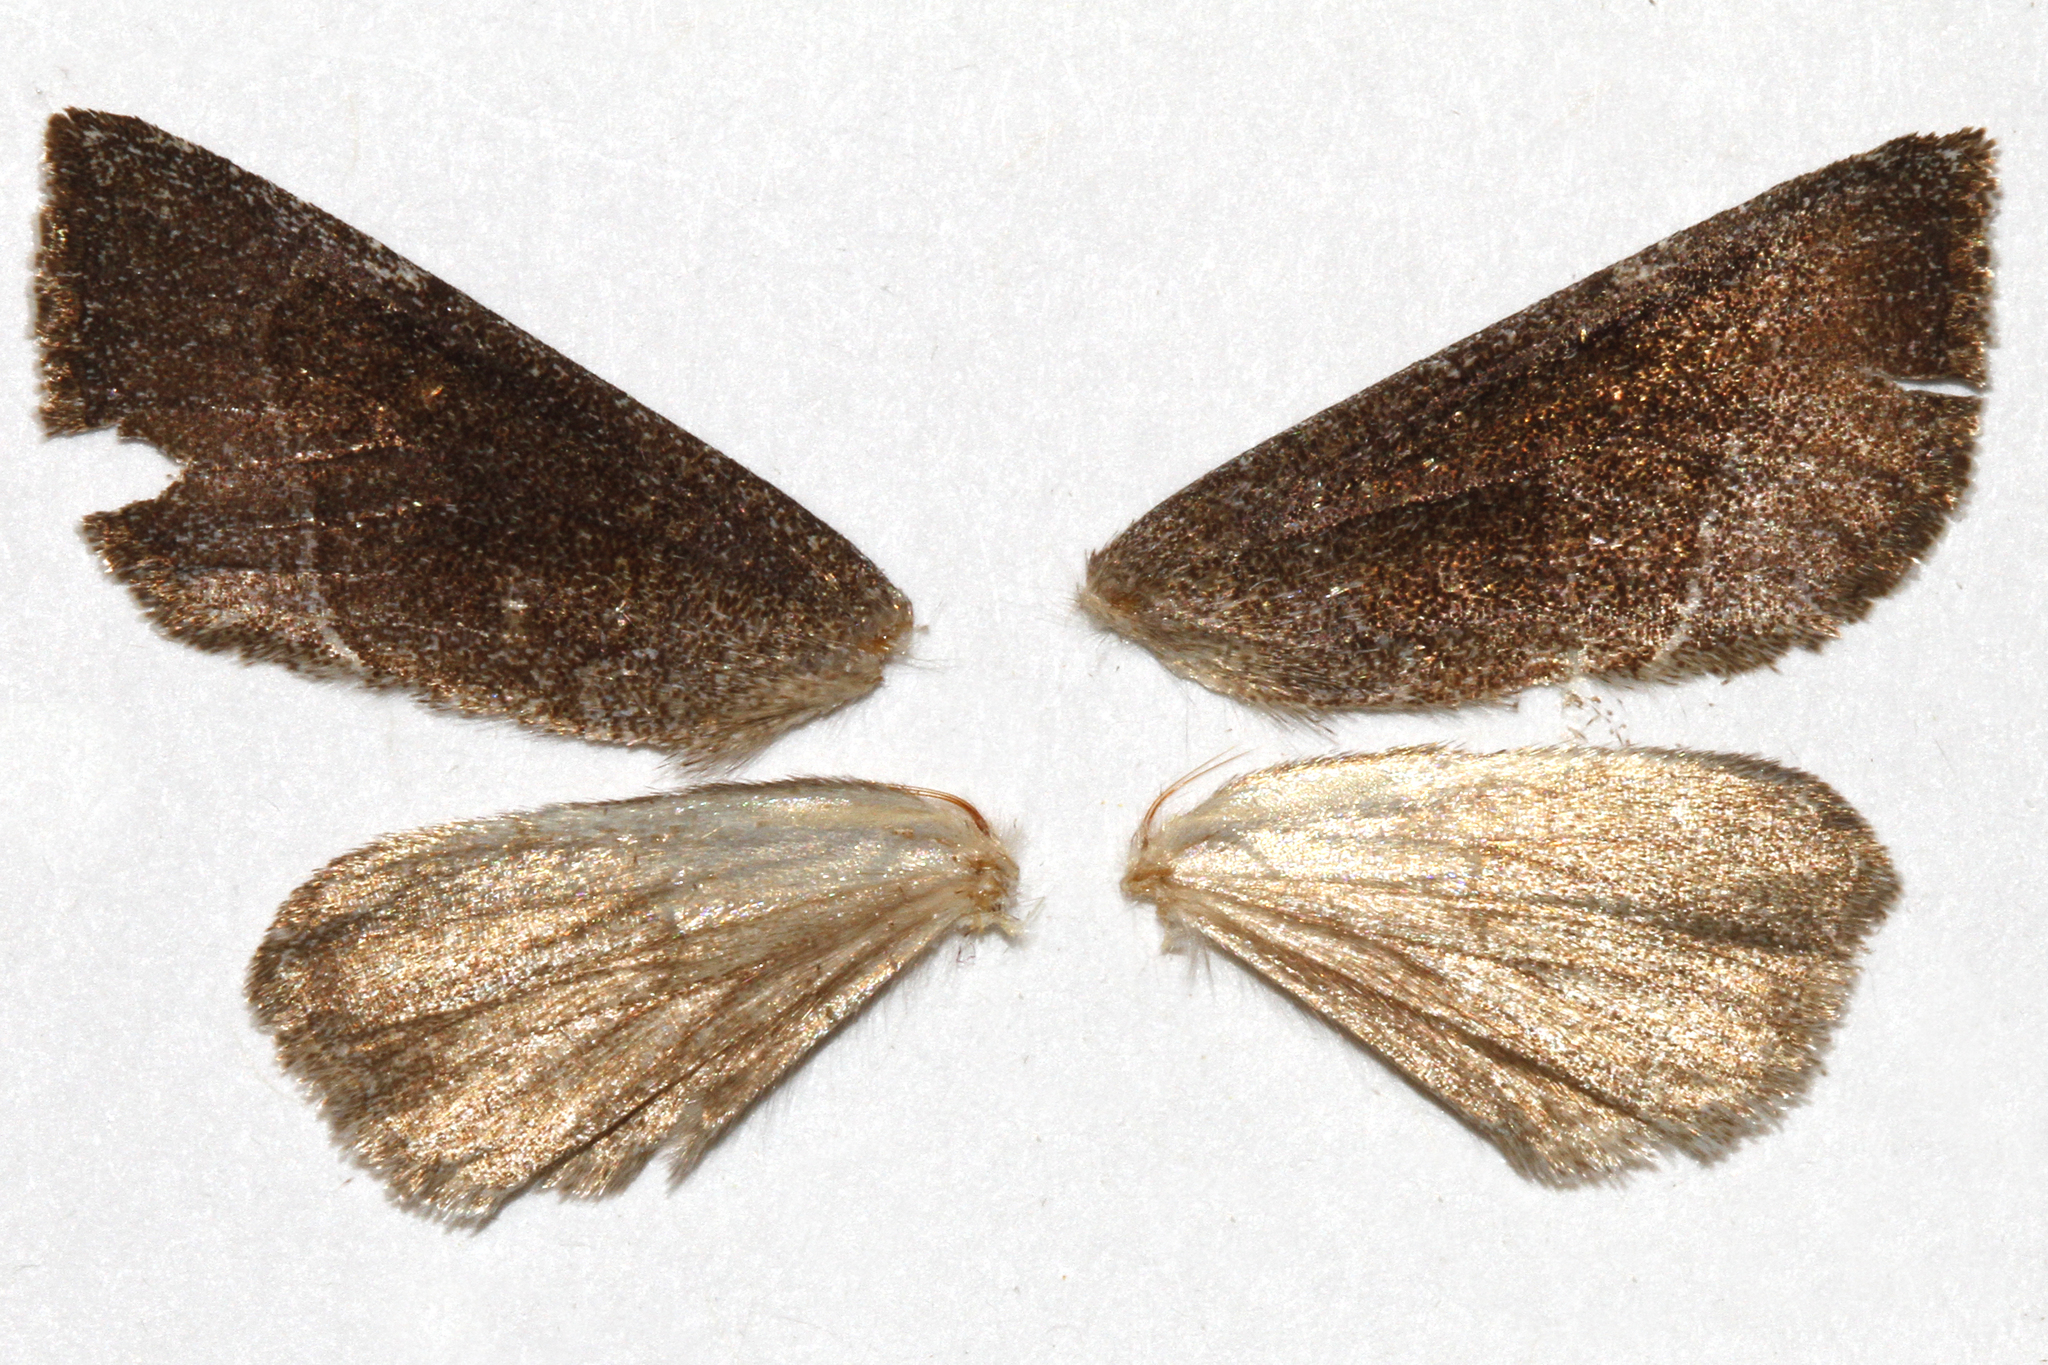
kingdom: Animalia
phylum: Arthropoda
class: Insecta
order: Lepidoptera
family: Noctuidae
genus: Papaipema
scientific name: Papaipema beeriana
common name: Blazing star stem borer
